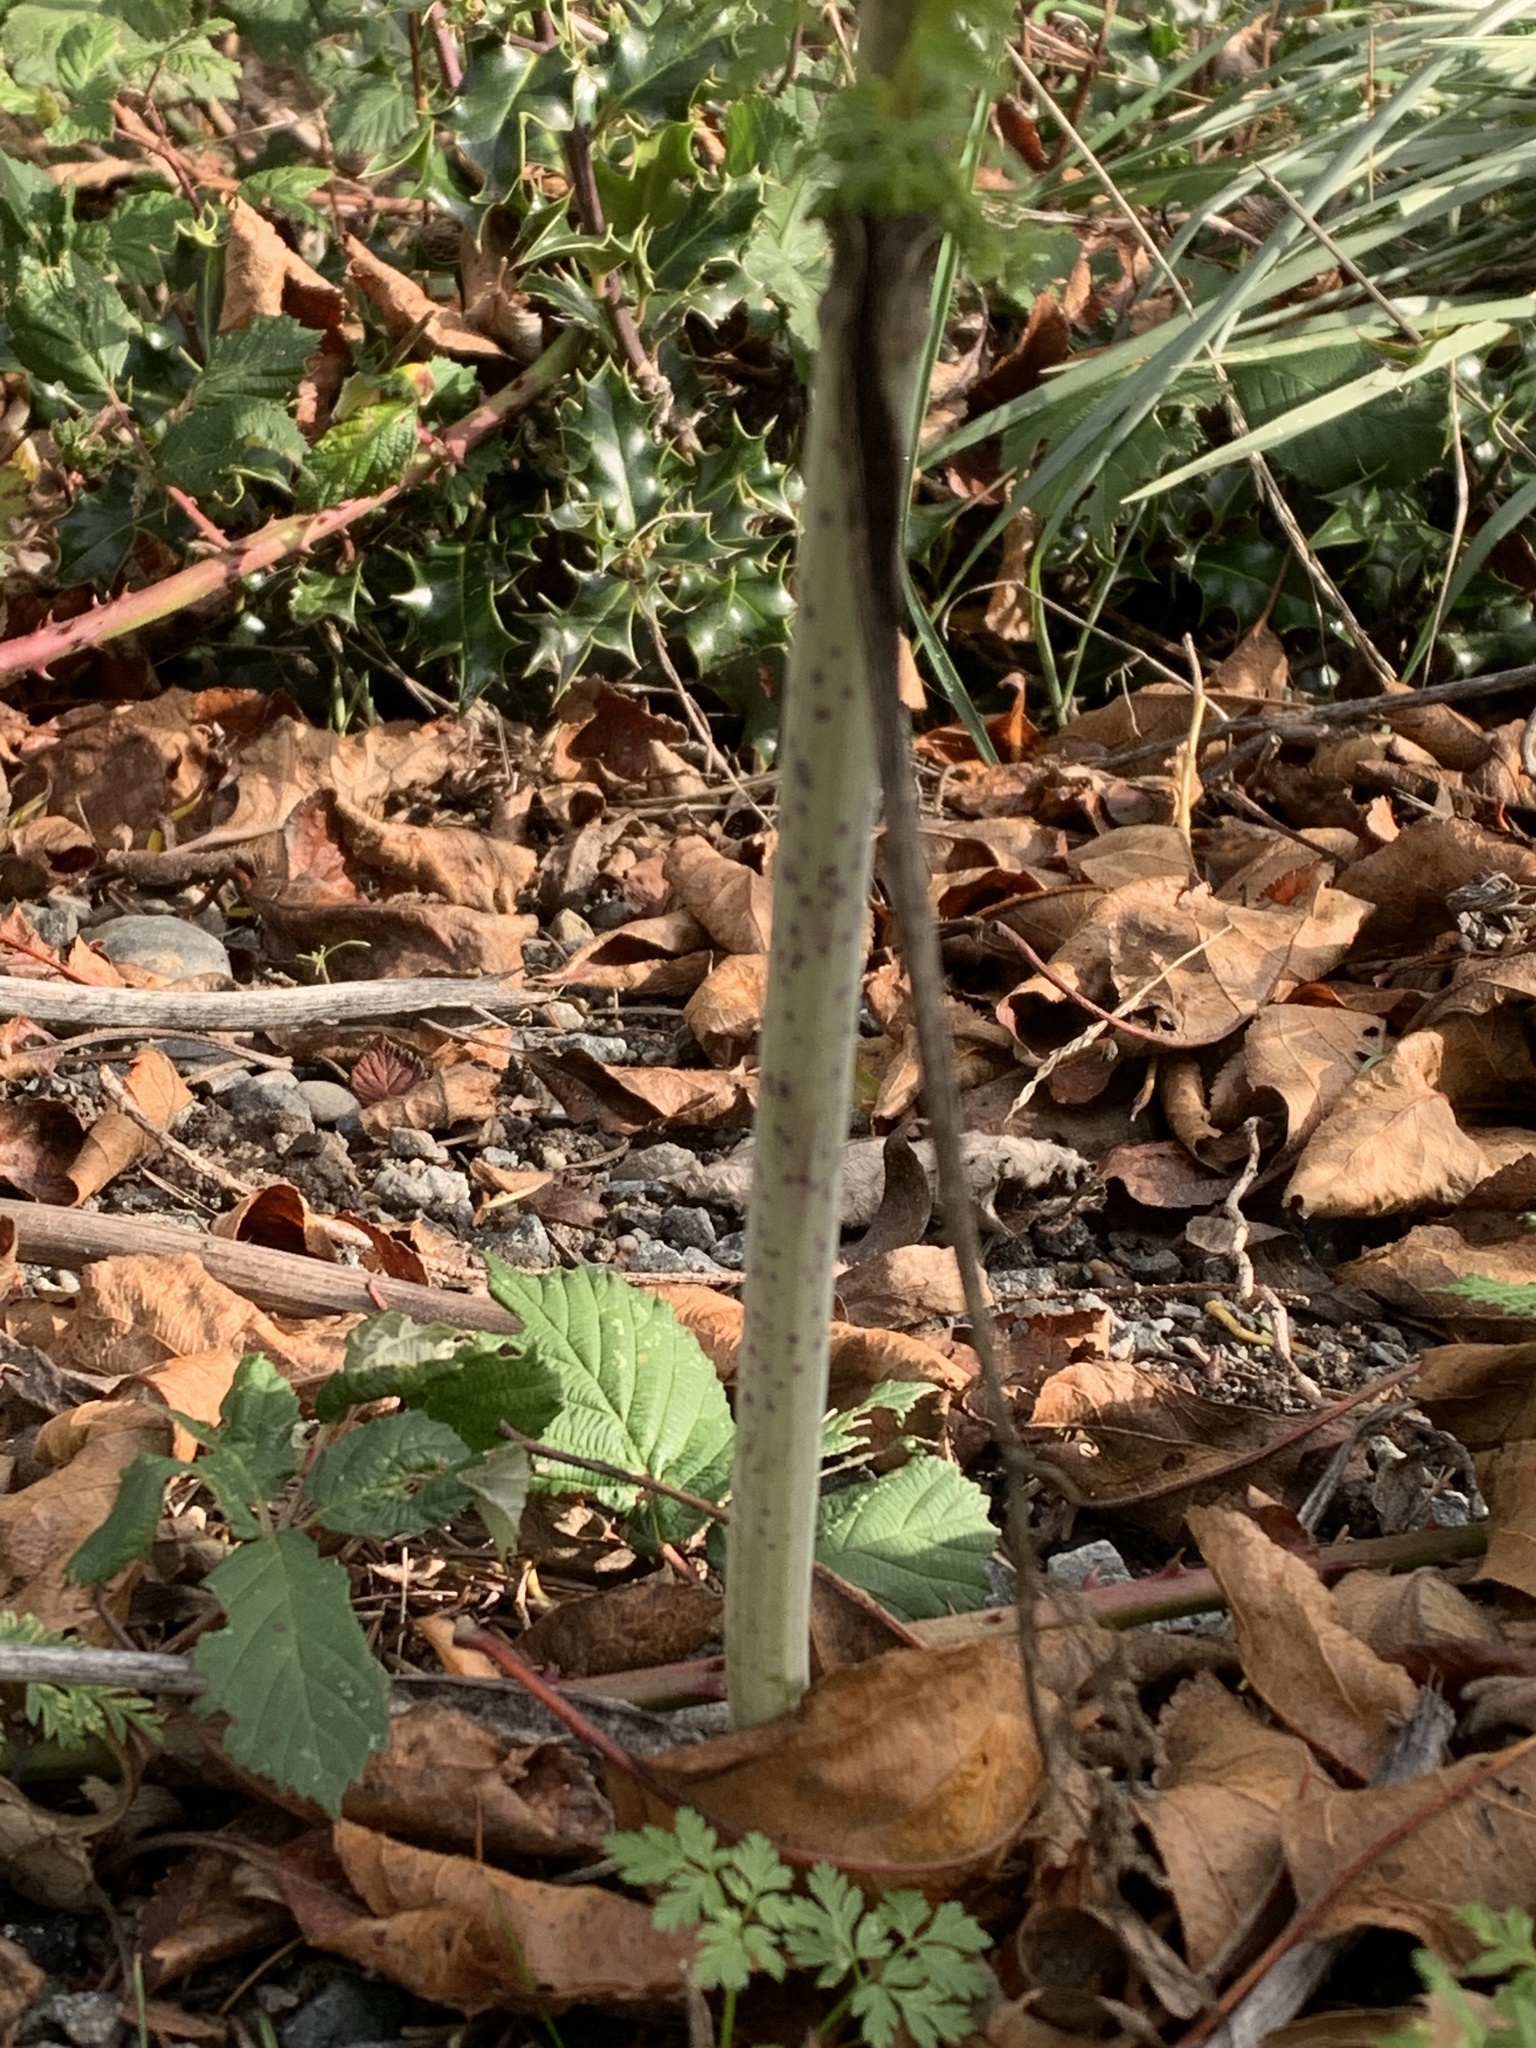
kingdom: Plantae
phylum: Tracheophyta
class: Magnoliopsida
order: Apiales
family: Apiaceae
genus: Conium
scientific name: Conium maculatum
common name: Hemlock
